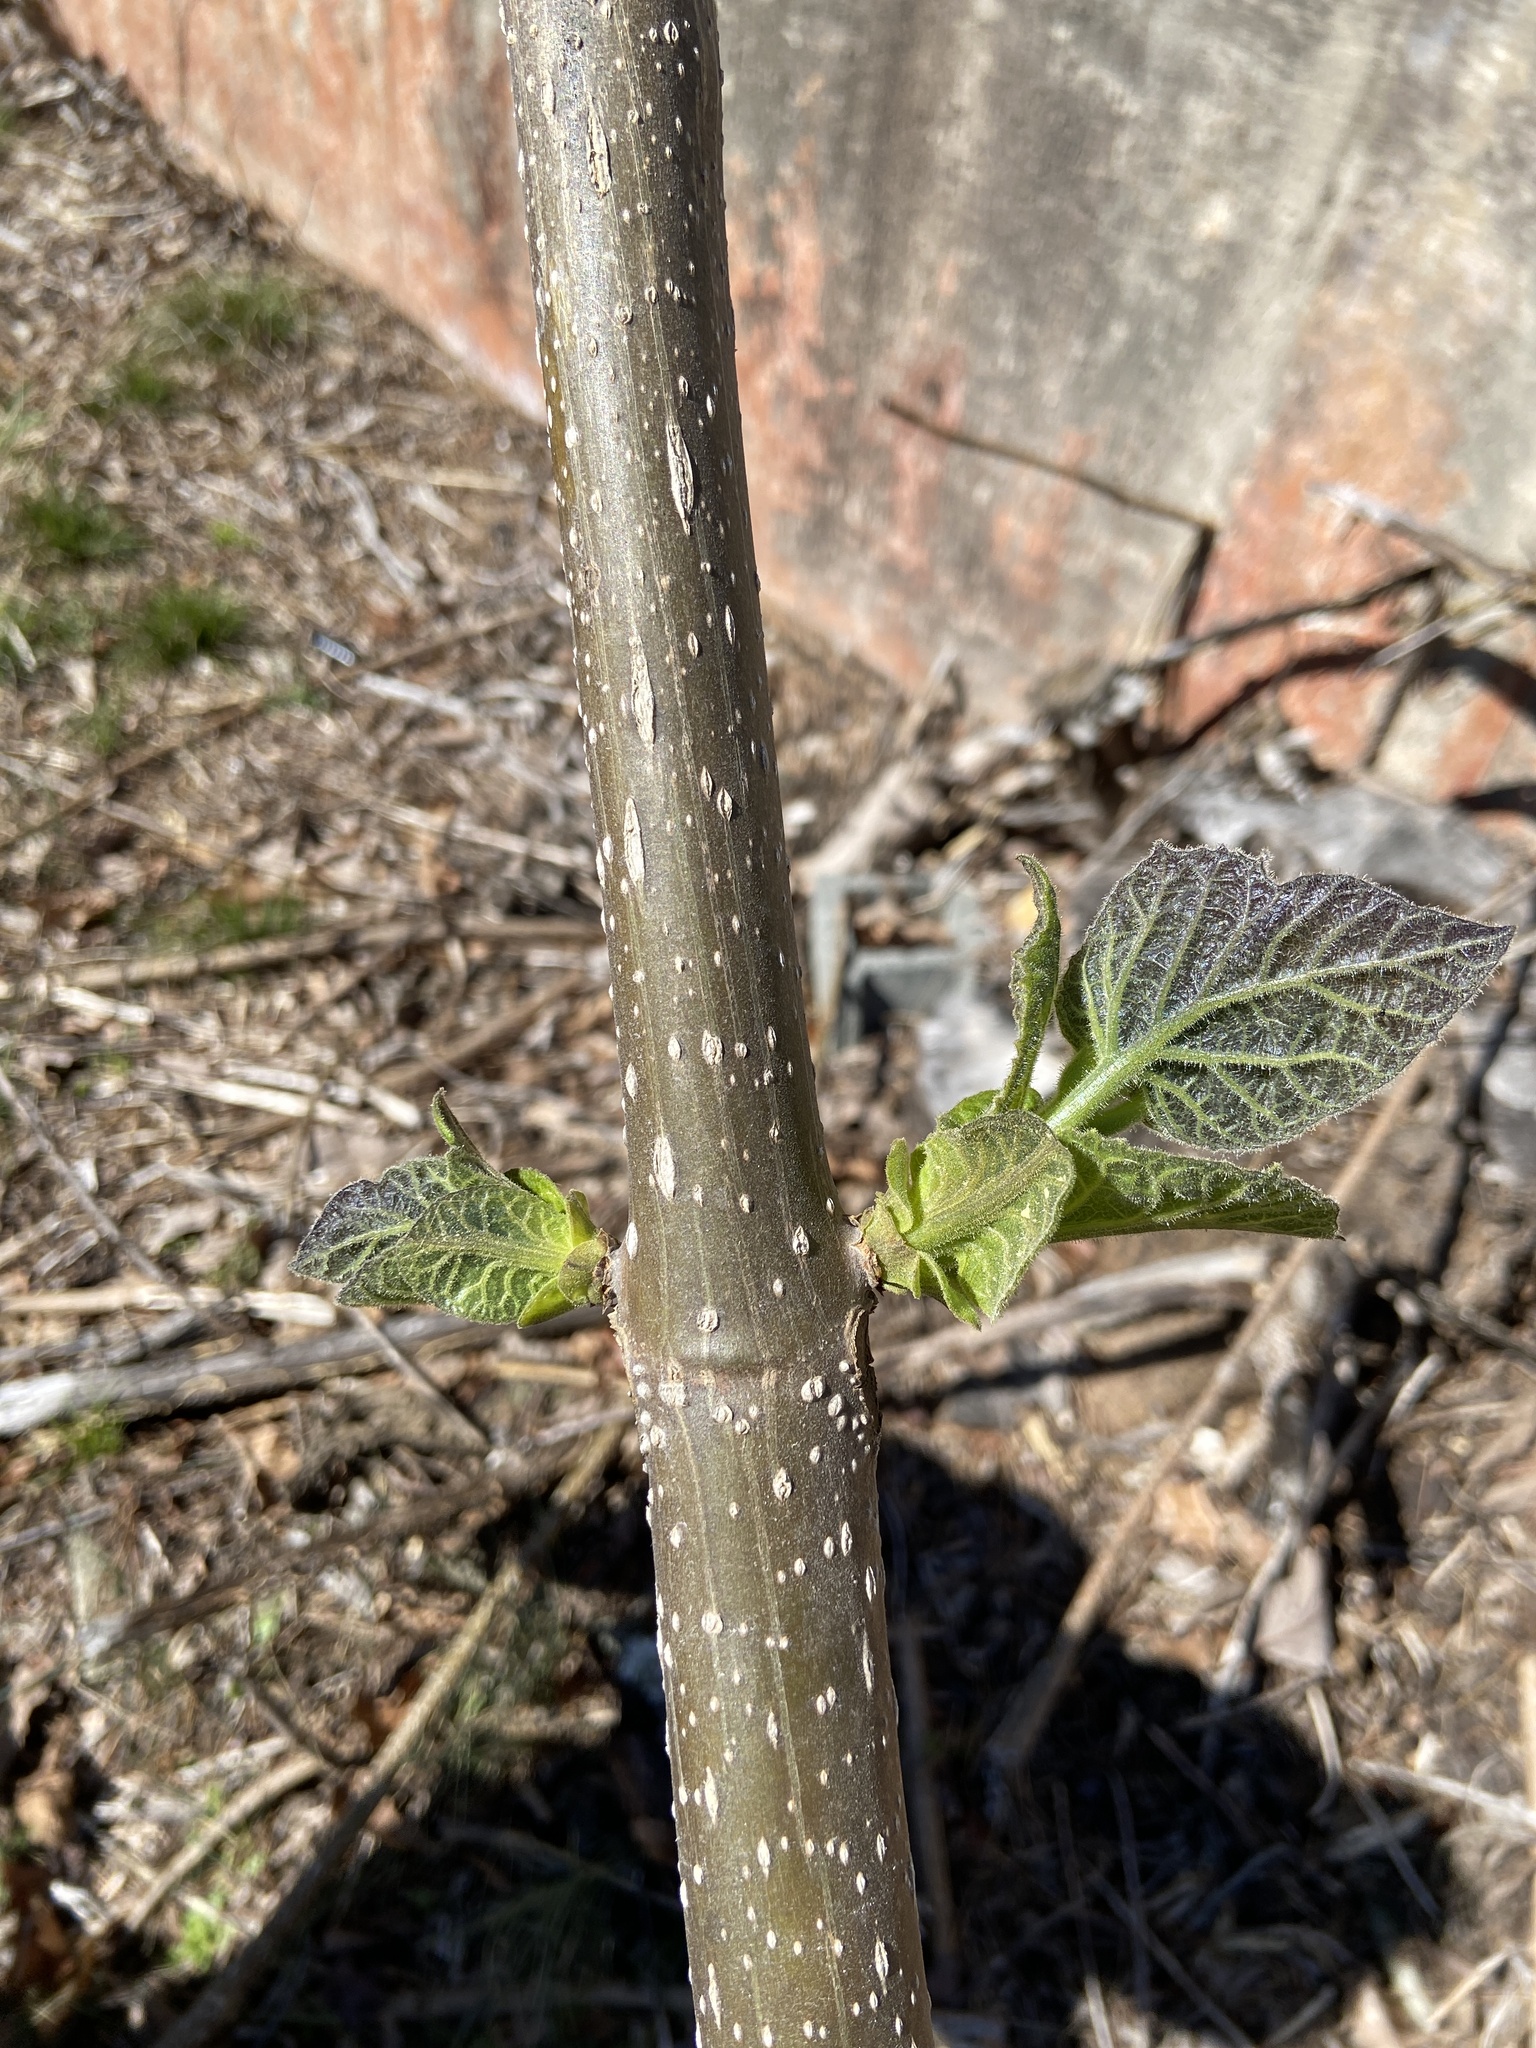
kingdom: Plantae
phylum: Tracheophyta
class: Magnoliopsida
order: Lamiales
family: Paulowniaceae
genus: Paulownia
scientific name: Paulownia tomentosa
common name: Foxglove-tree
